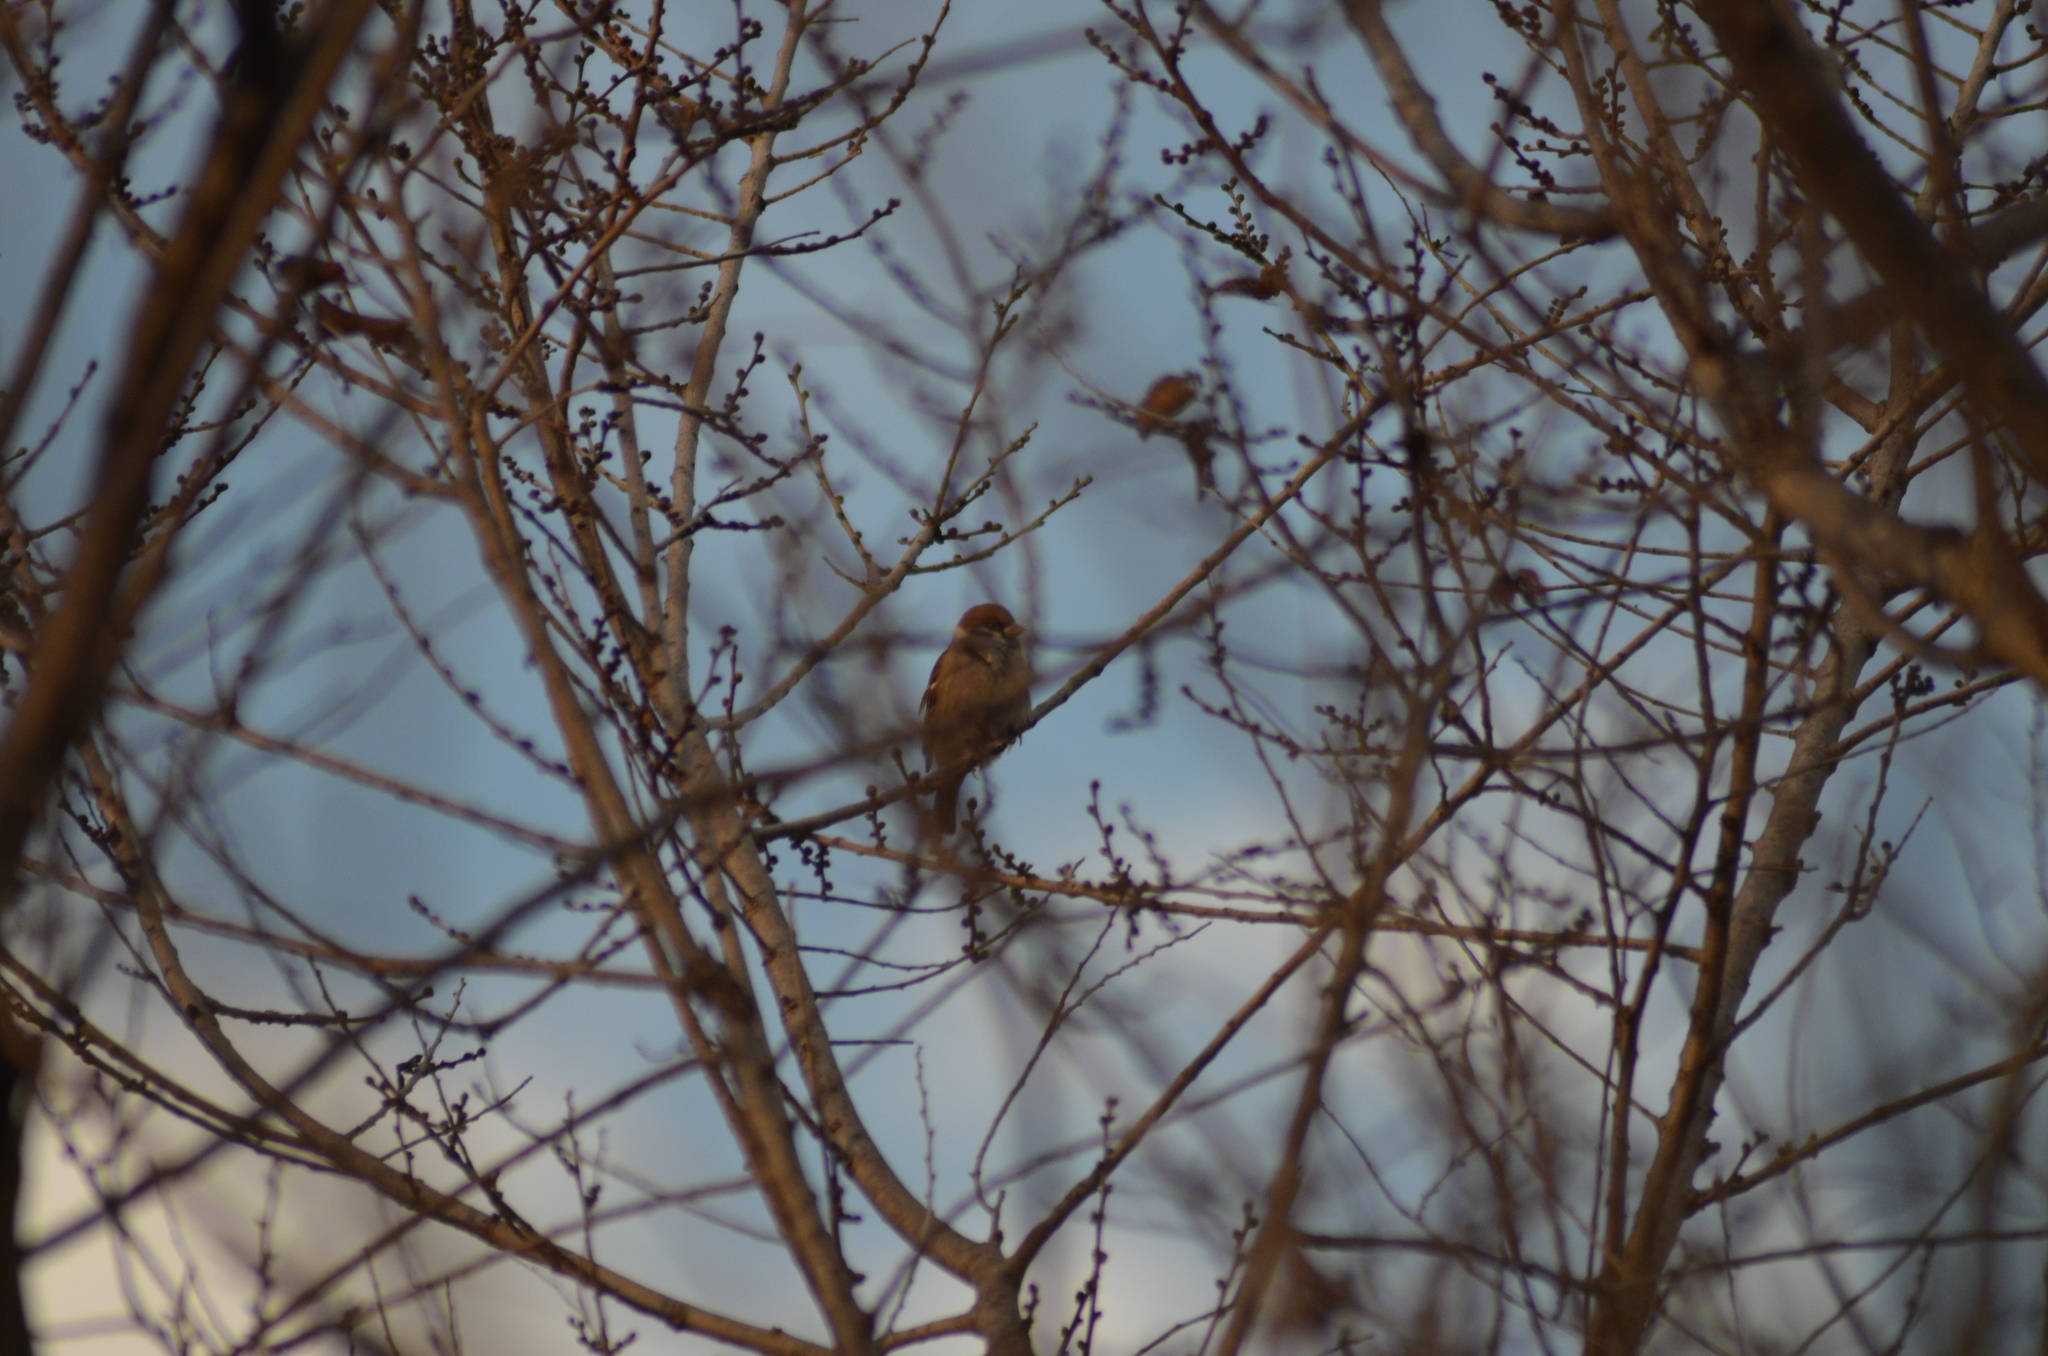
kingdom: Animalia
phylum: Chordata
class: Aves
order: Passeriformes
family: Passeridae
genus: Passer
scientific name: Passer montanus
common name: Eurasian tree sparrow
